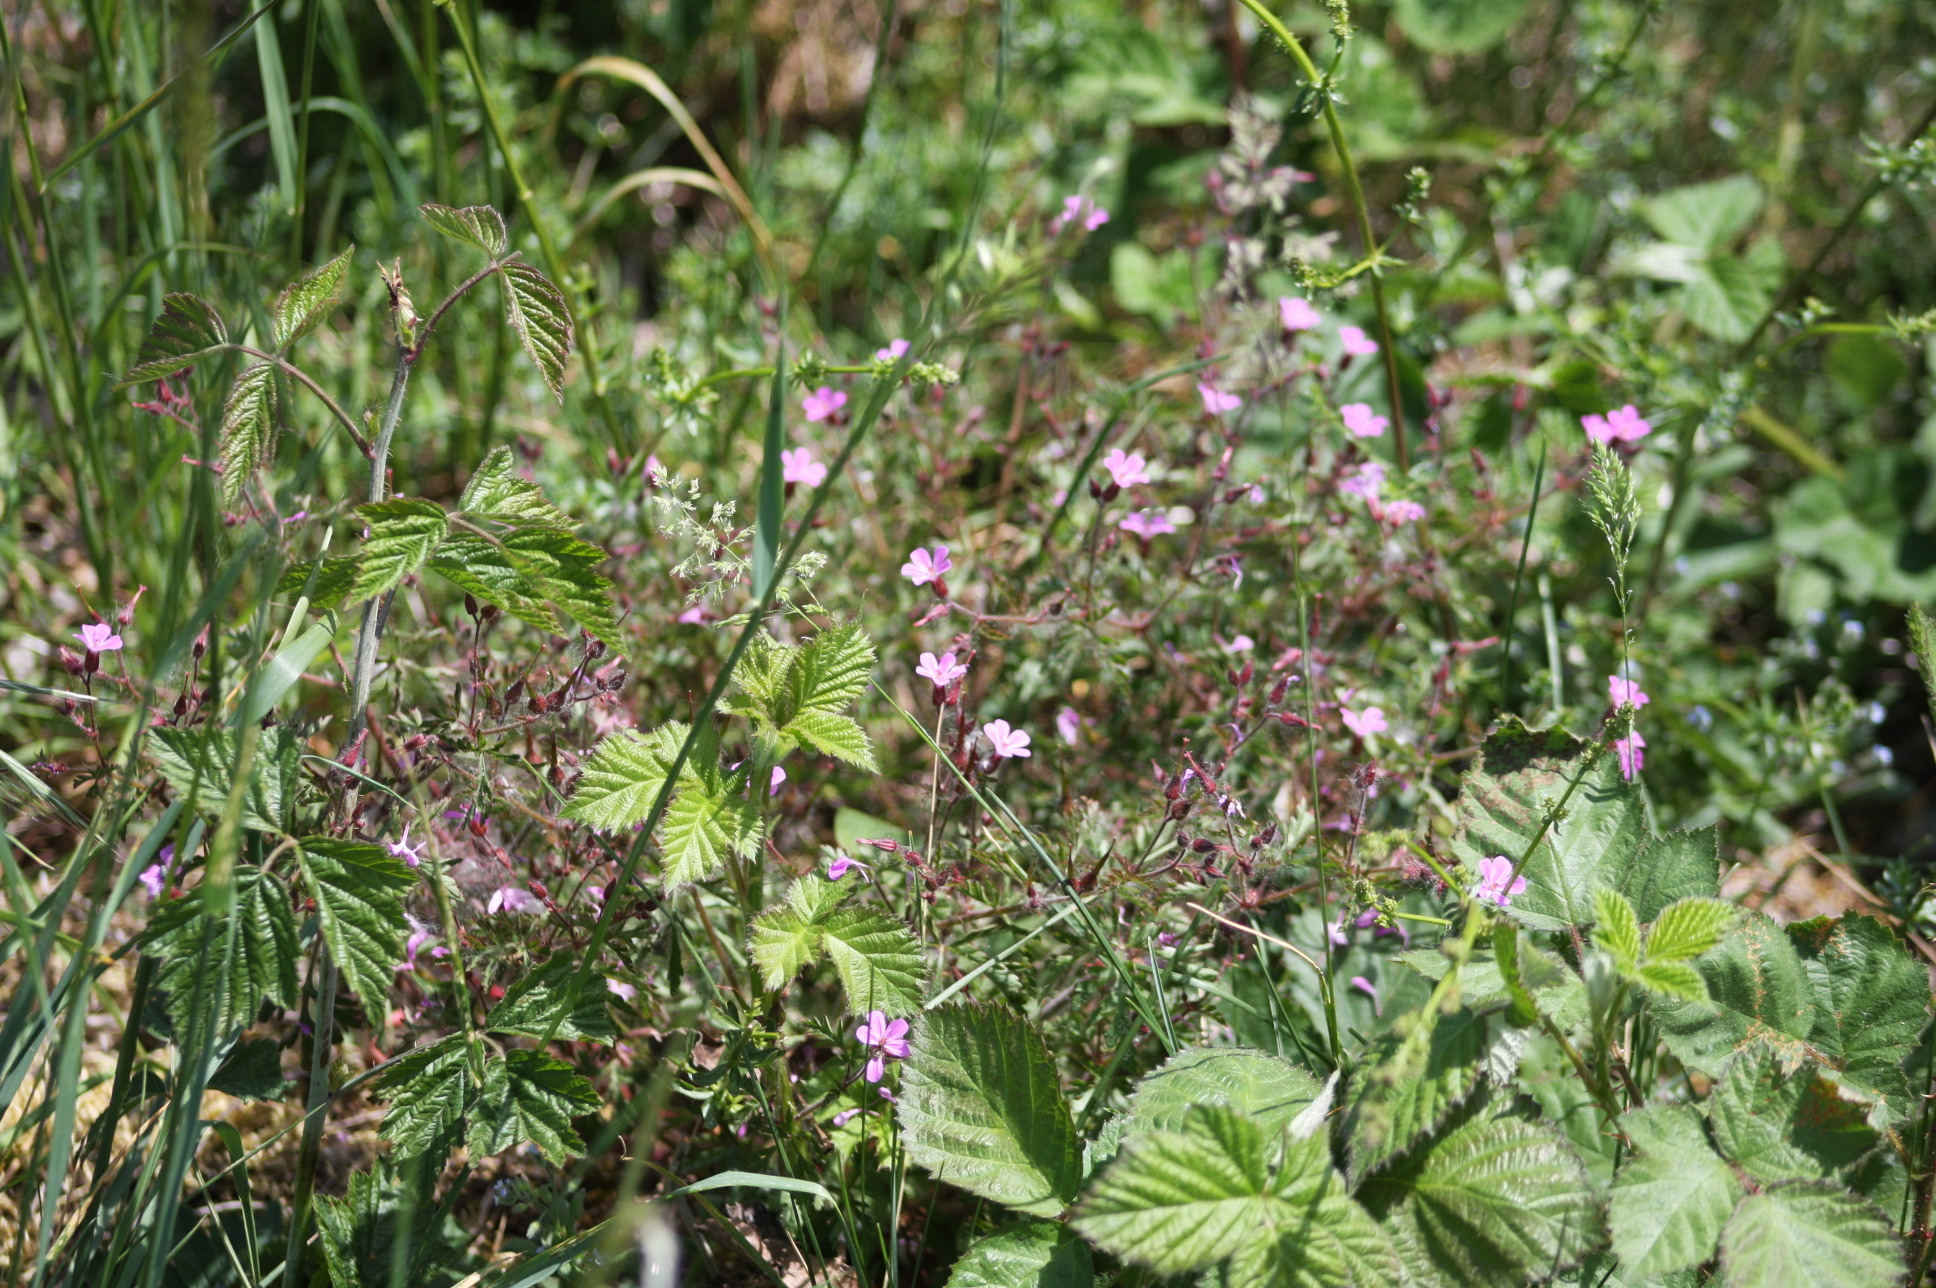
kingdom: Plantae
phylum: Tracheophyta
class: Magnoliopsida
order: Geraniales
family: Geraniaceae
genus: Geranium
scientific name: Geranium robertianum
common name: Herb-robert
